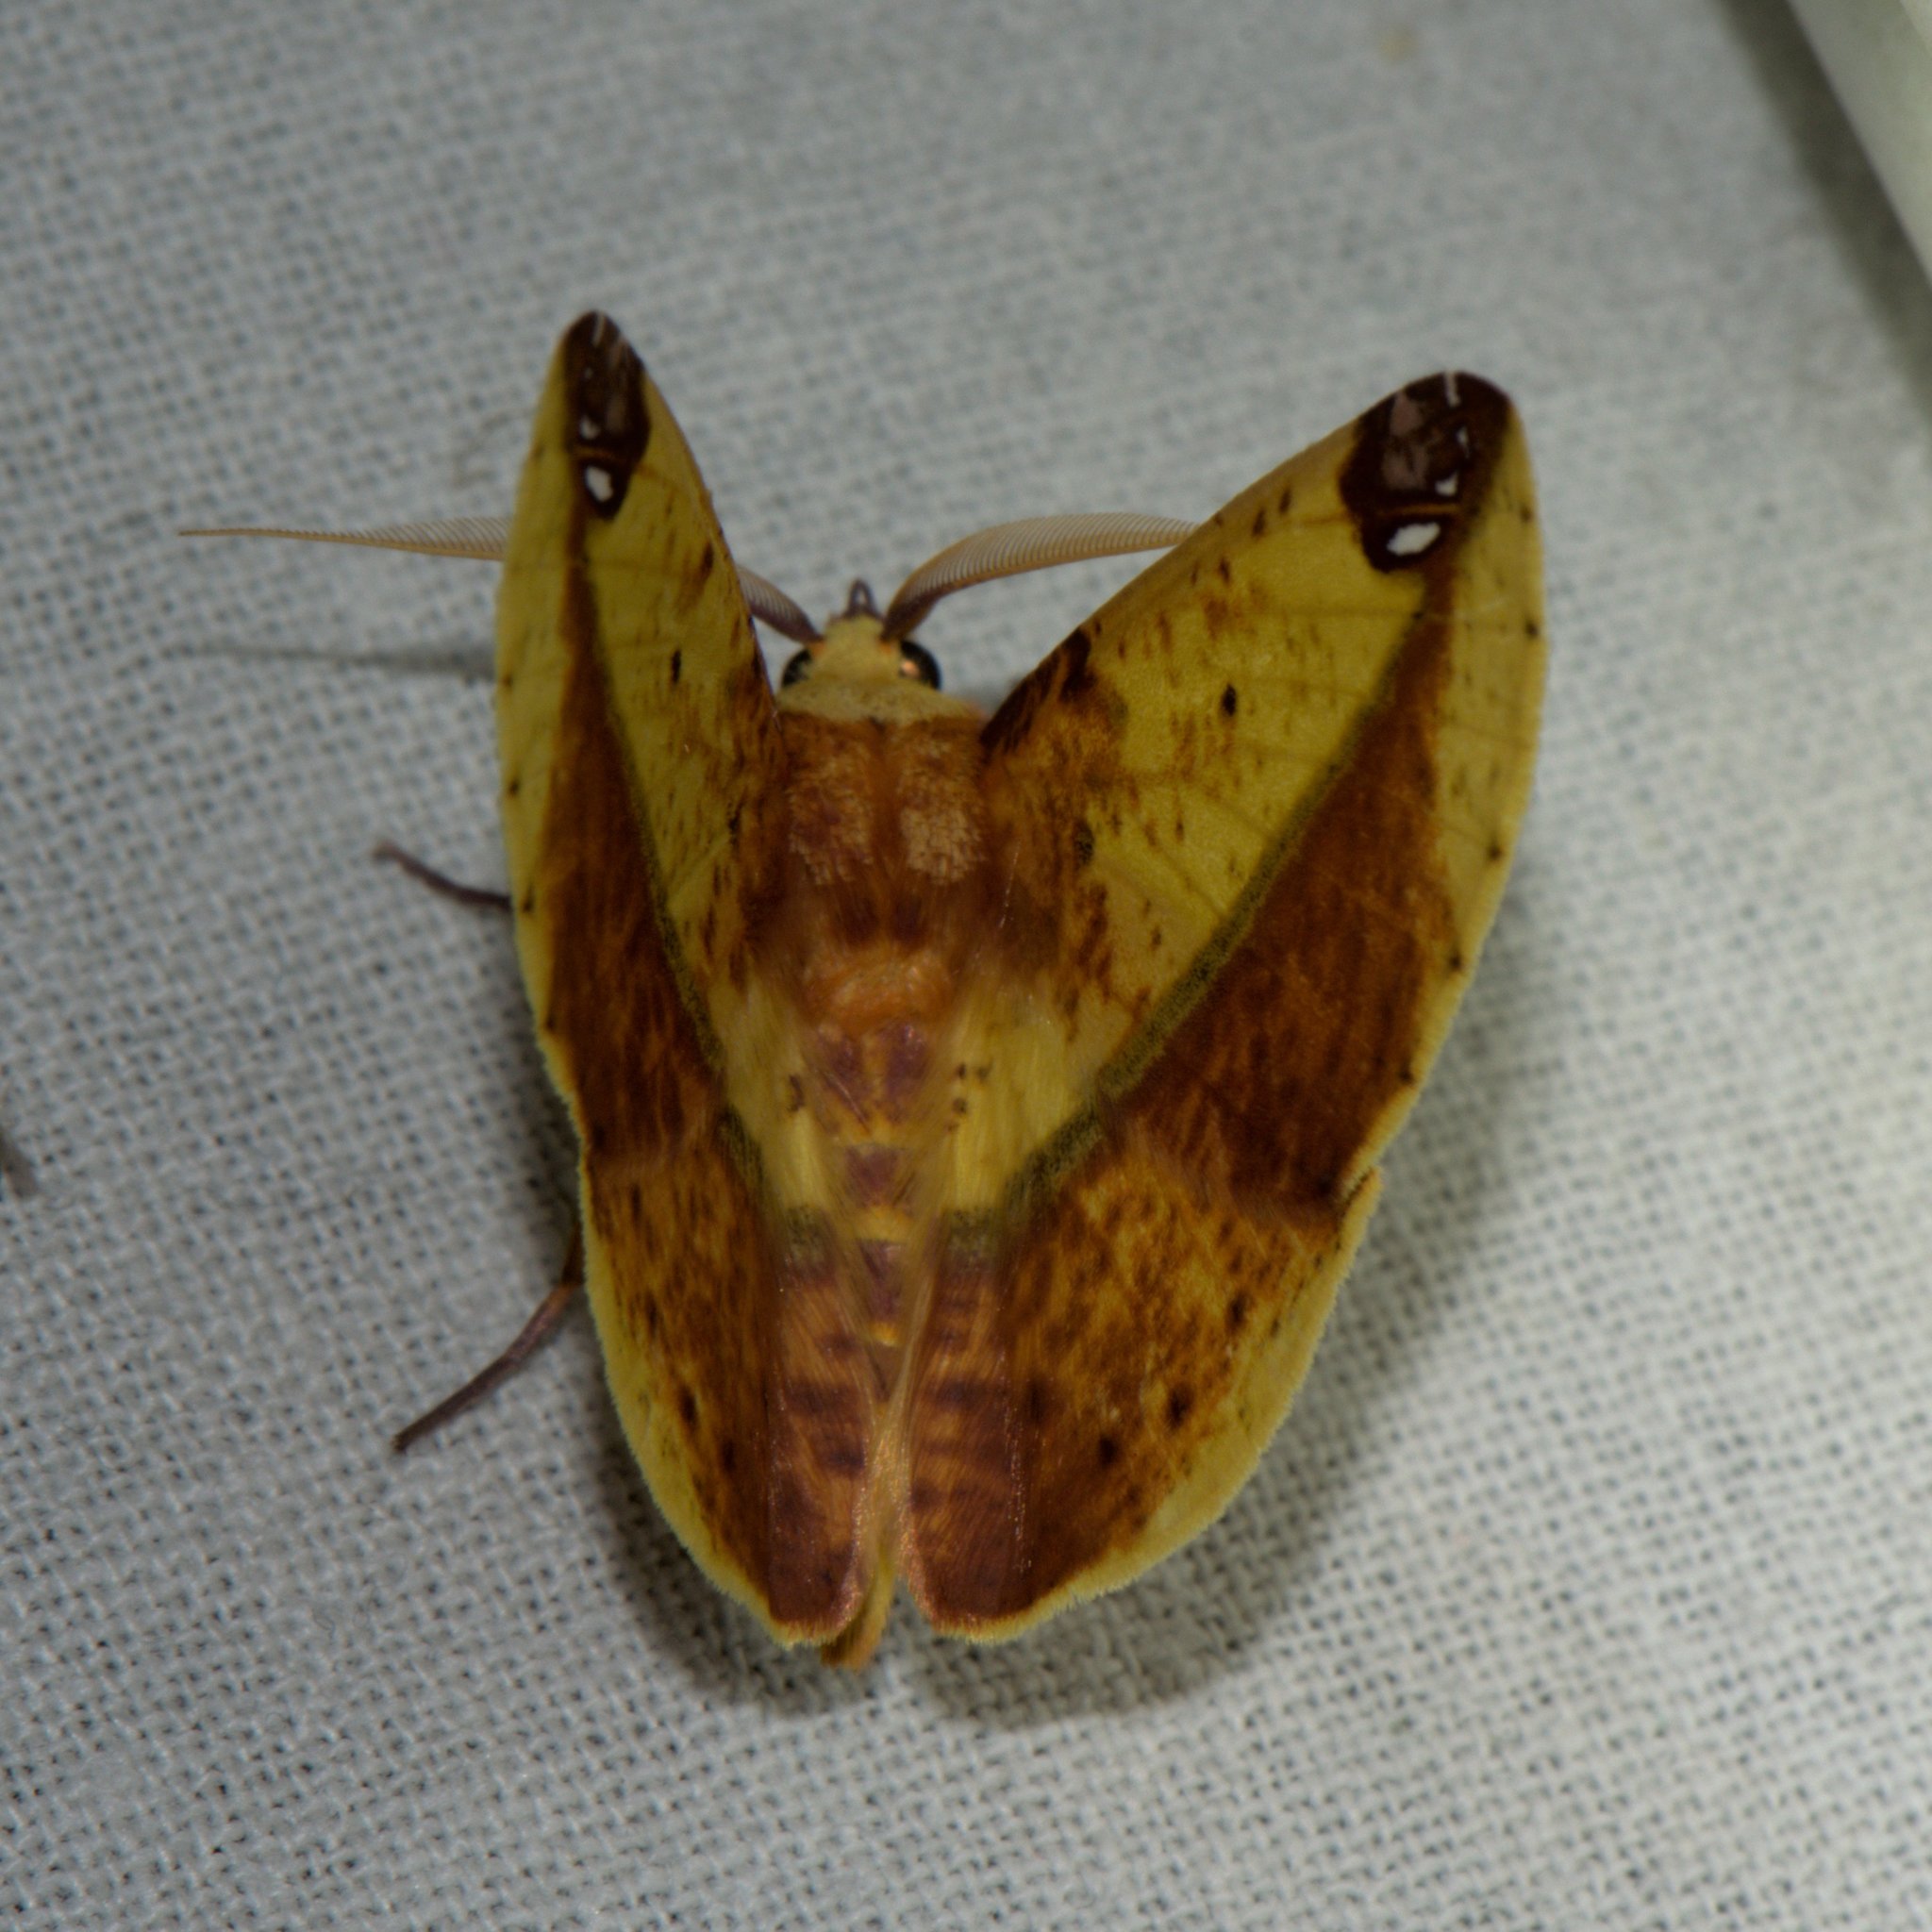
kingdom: Animalia
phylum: Arthropoda
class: Insecta
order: Lepidoptera
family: Geometridae
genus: Mimomiza
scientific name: Mimomiza cruentaria
